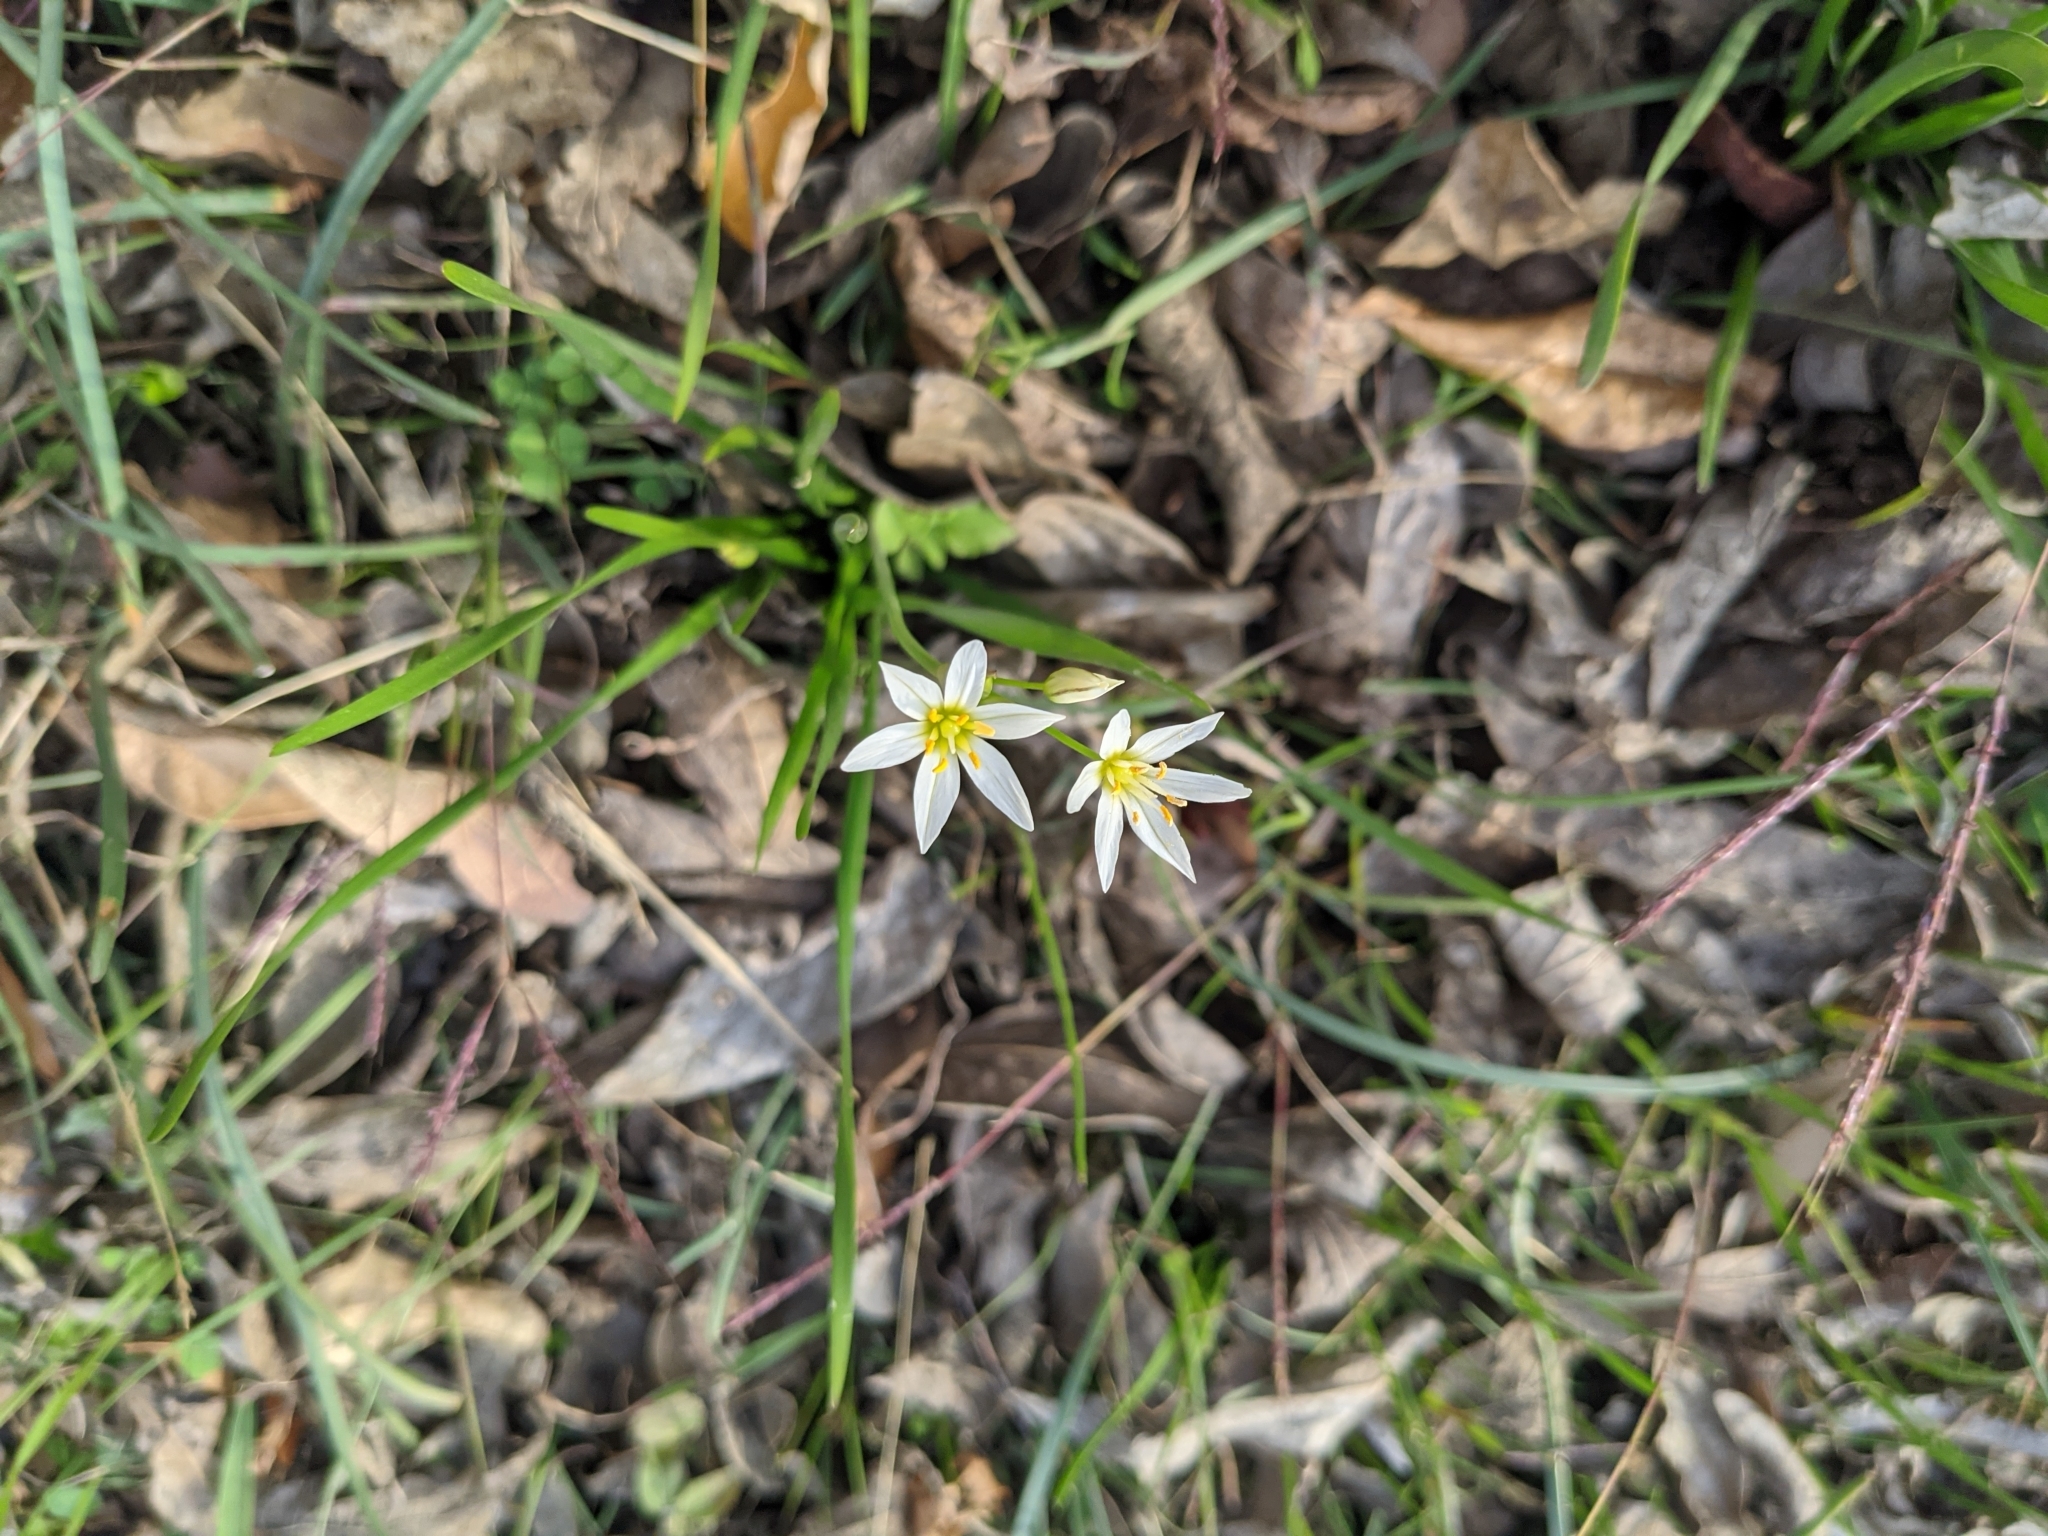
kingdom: Plantae
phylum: Tracheophyta
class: Liliopsida
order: Asparagales
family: Amaryllidaceae
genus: Nothoscordum
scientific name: Nothoscordum bivalve
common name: Crow-poison
